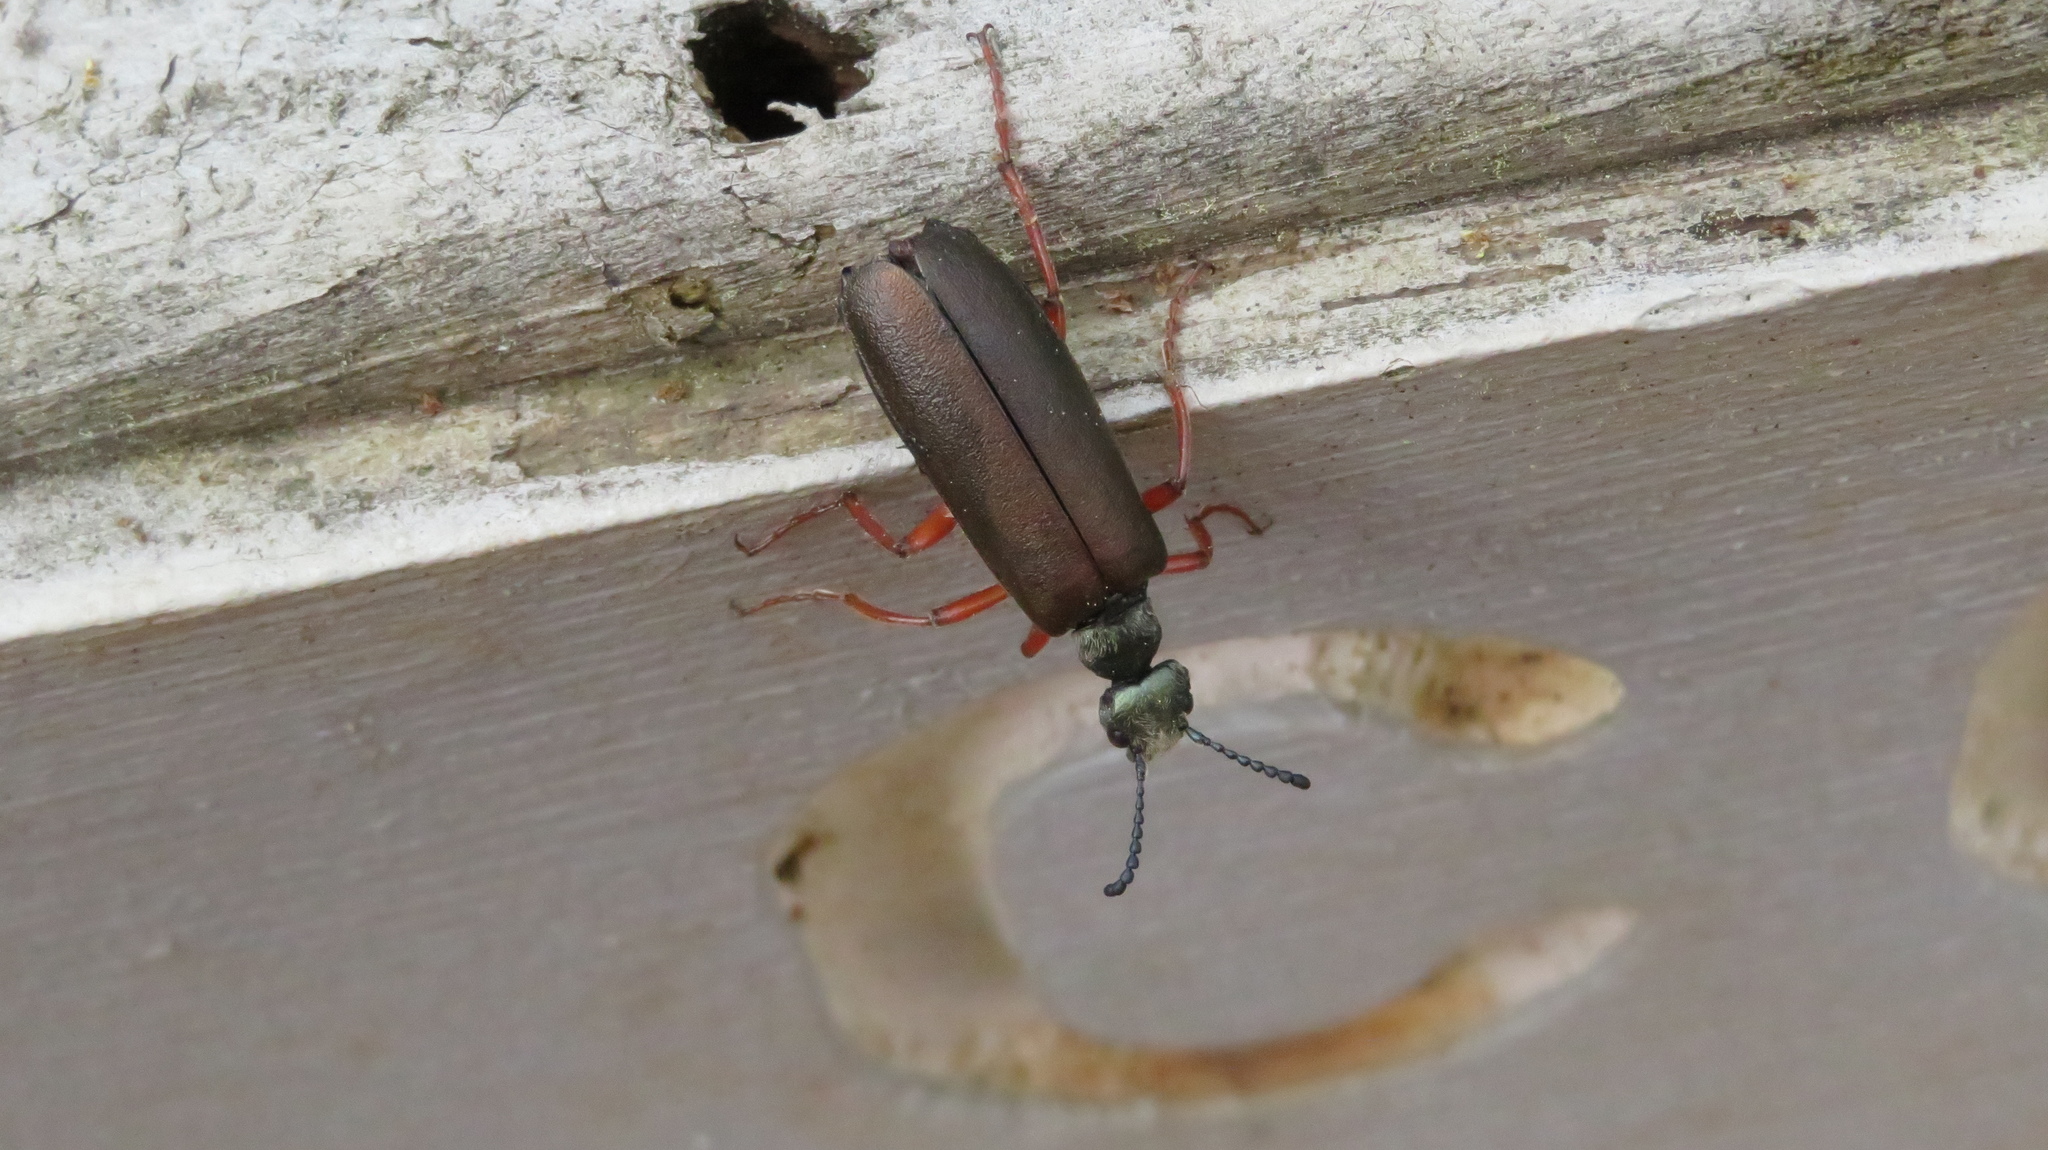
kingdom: Animalia
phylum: Arthropoda
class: Insecta
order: Coleoptera
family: Meloidae
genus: Lytta
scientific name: Lytta aenea
